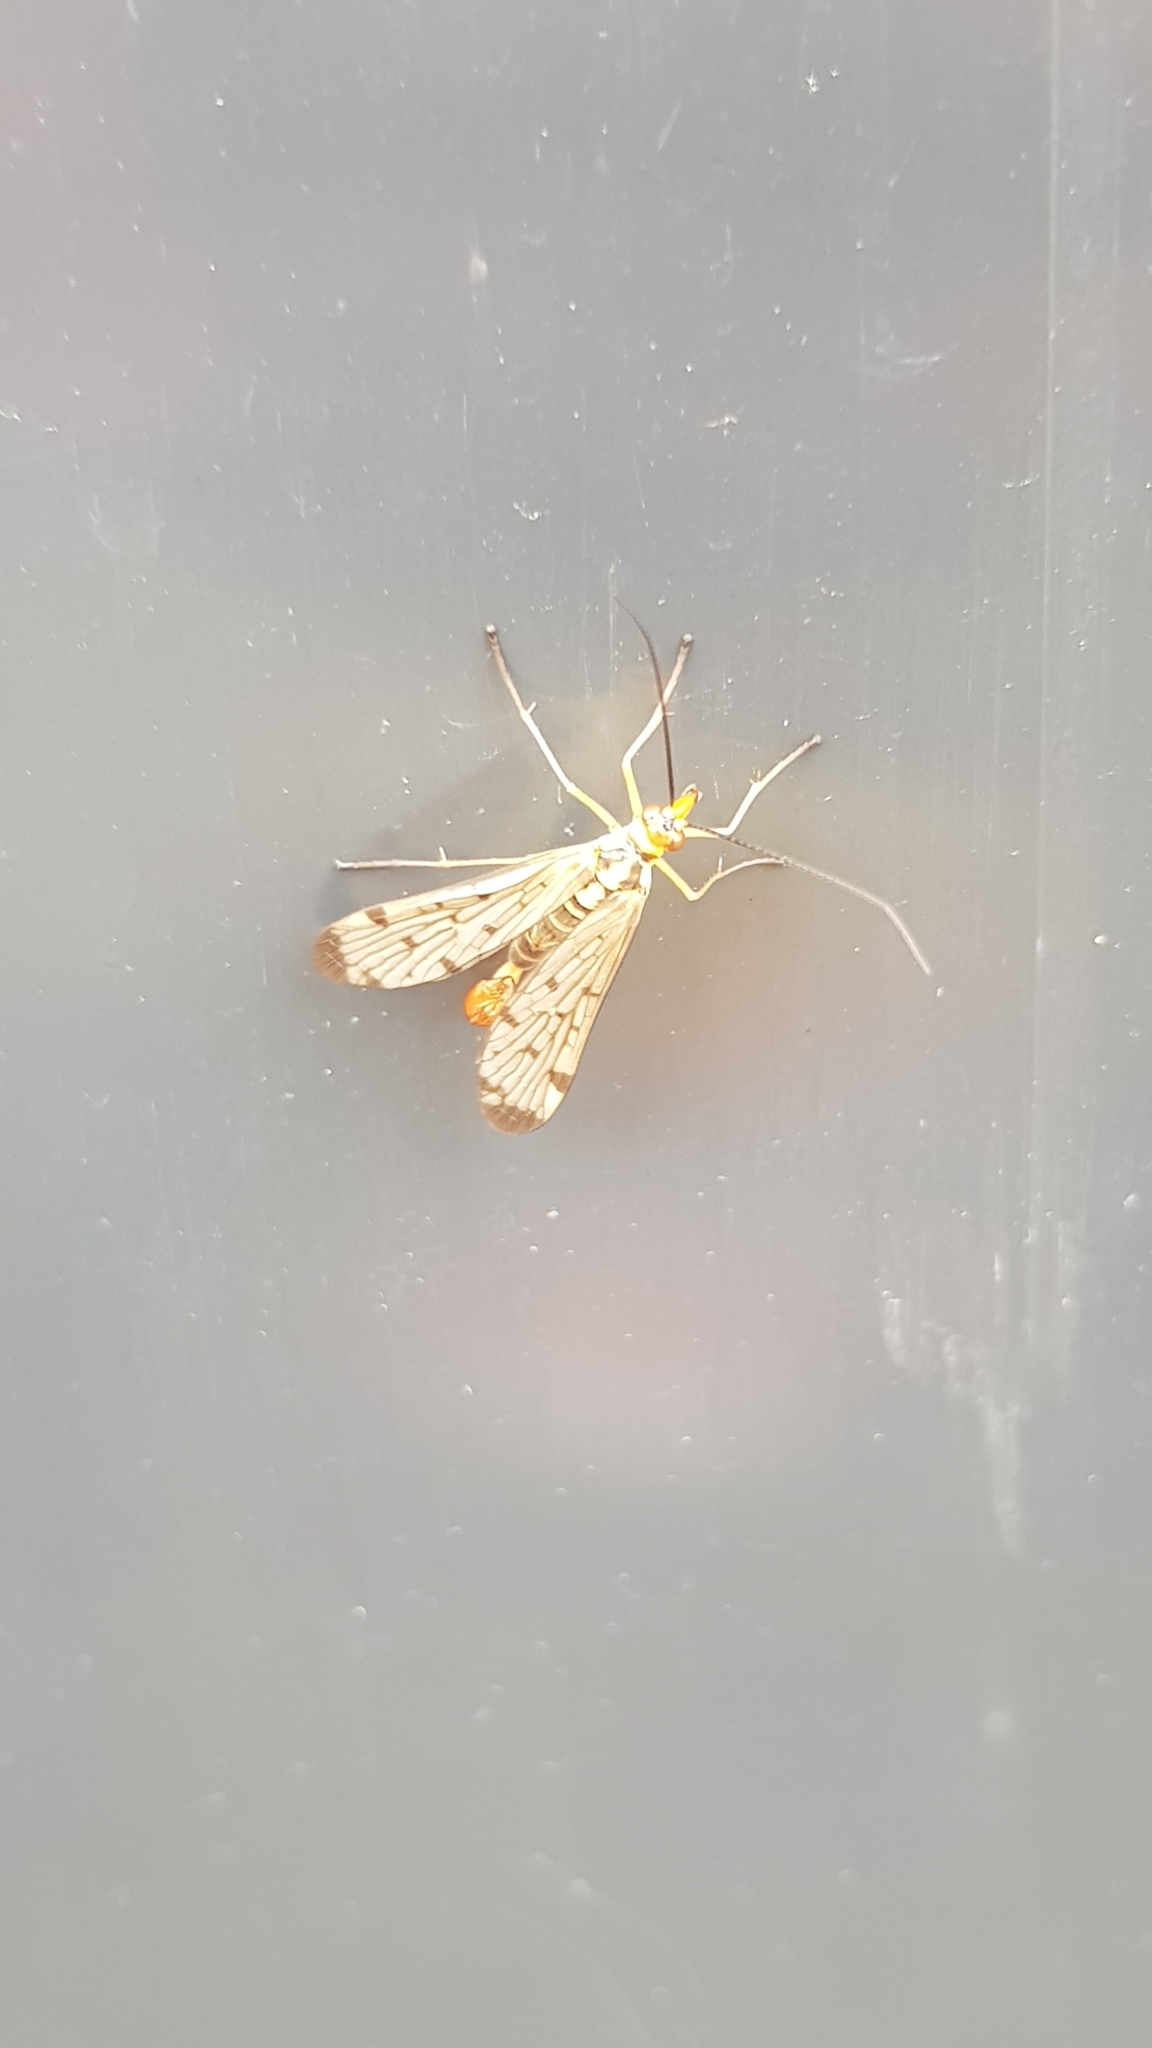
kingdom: Animalia
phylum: Arthropoda
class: Insecta
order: Mecoptera
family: Panorpidae
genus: Panorpa
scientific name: Panorpa germanica
